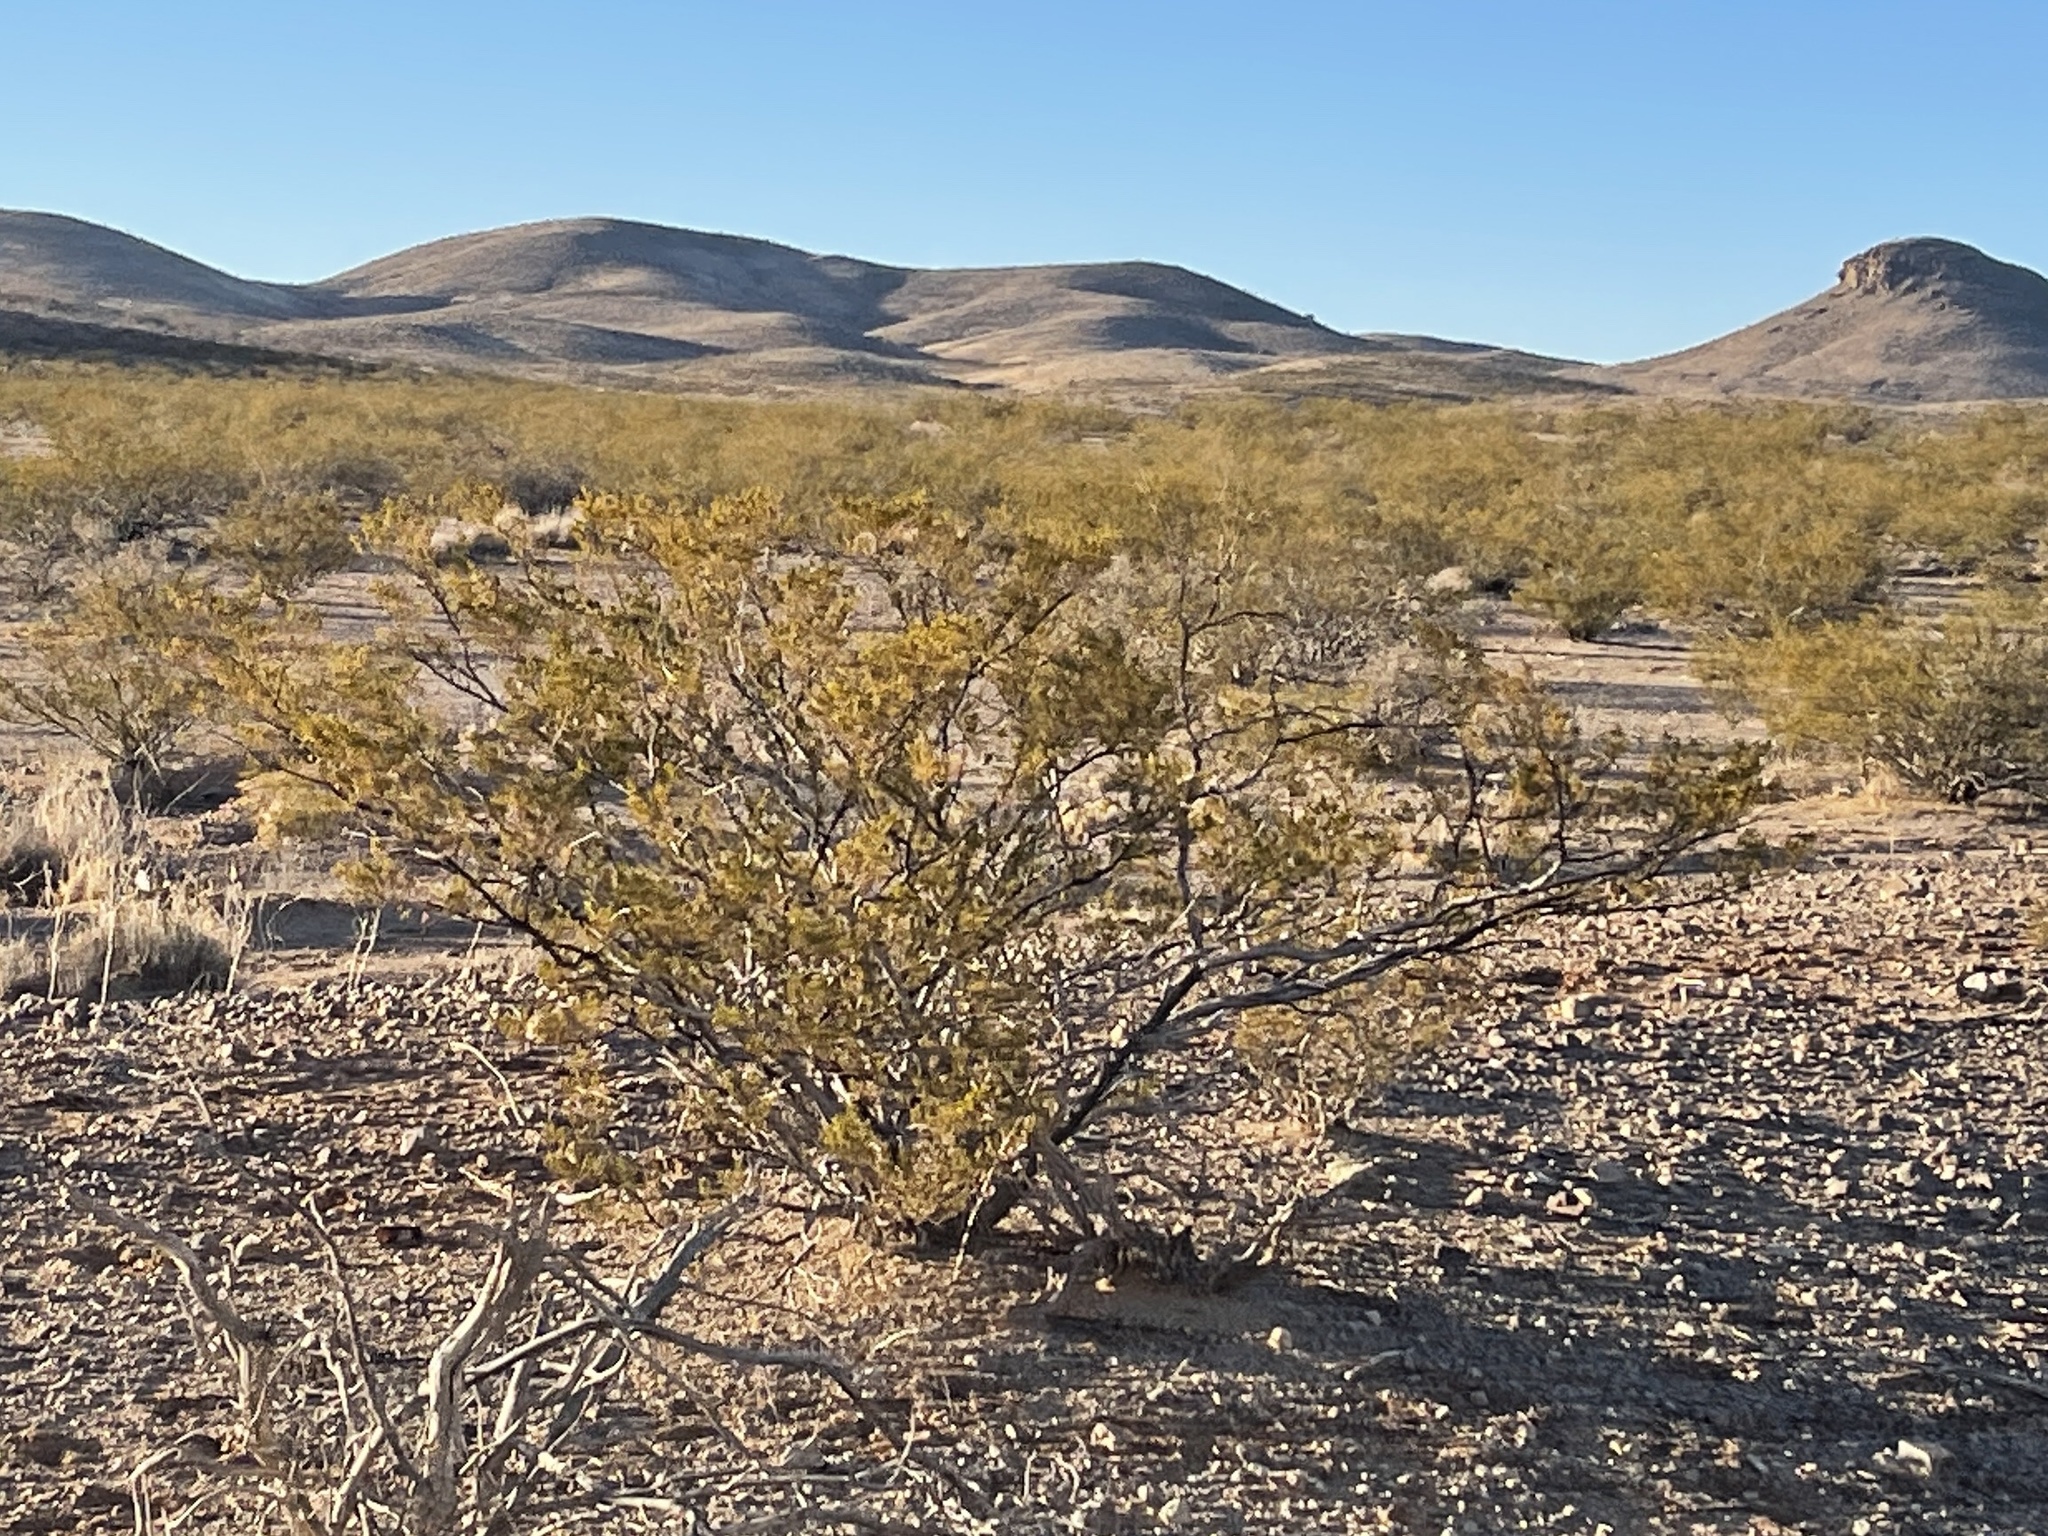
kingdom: Plantae
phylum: Tracheophyta
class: Magnoliopsida
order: Zygophyllales
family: Zygophyllaceae
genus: Larrea
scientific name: Larrea tridentata
